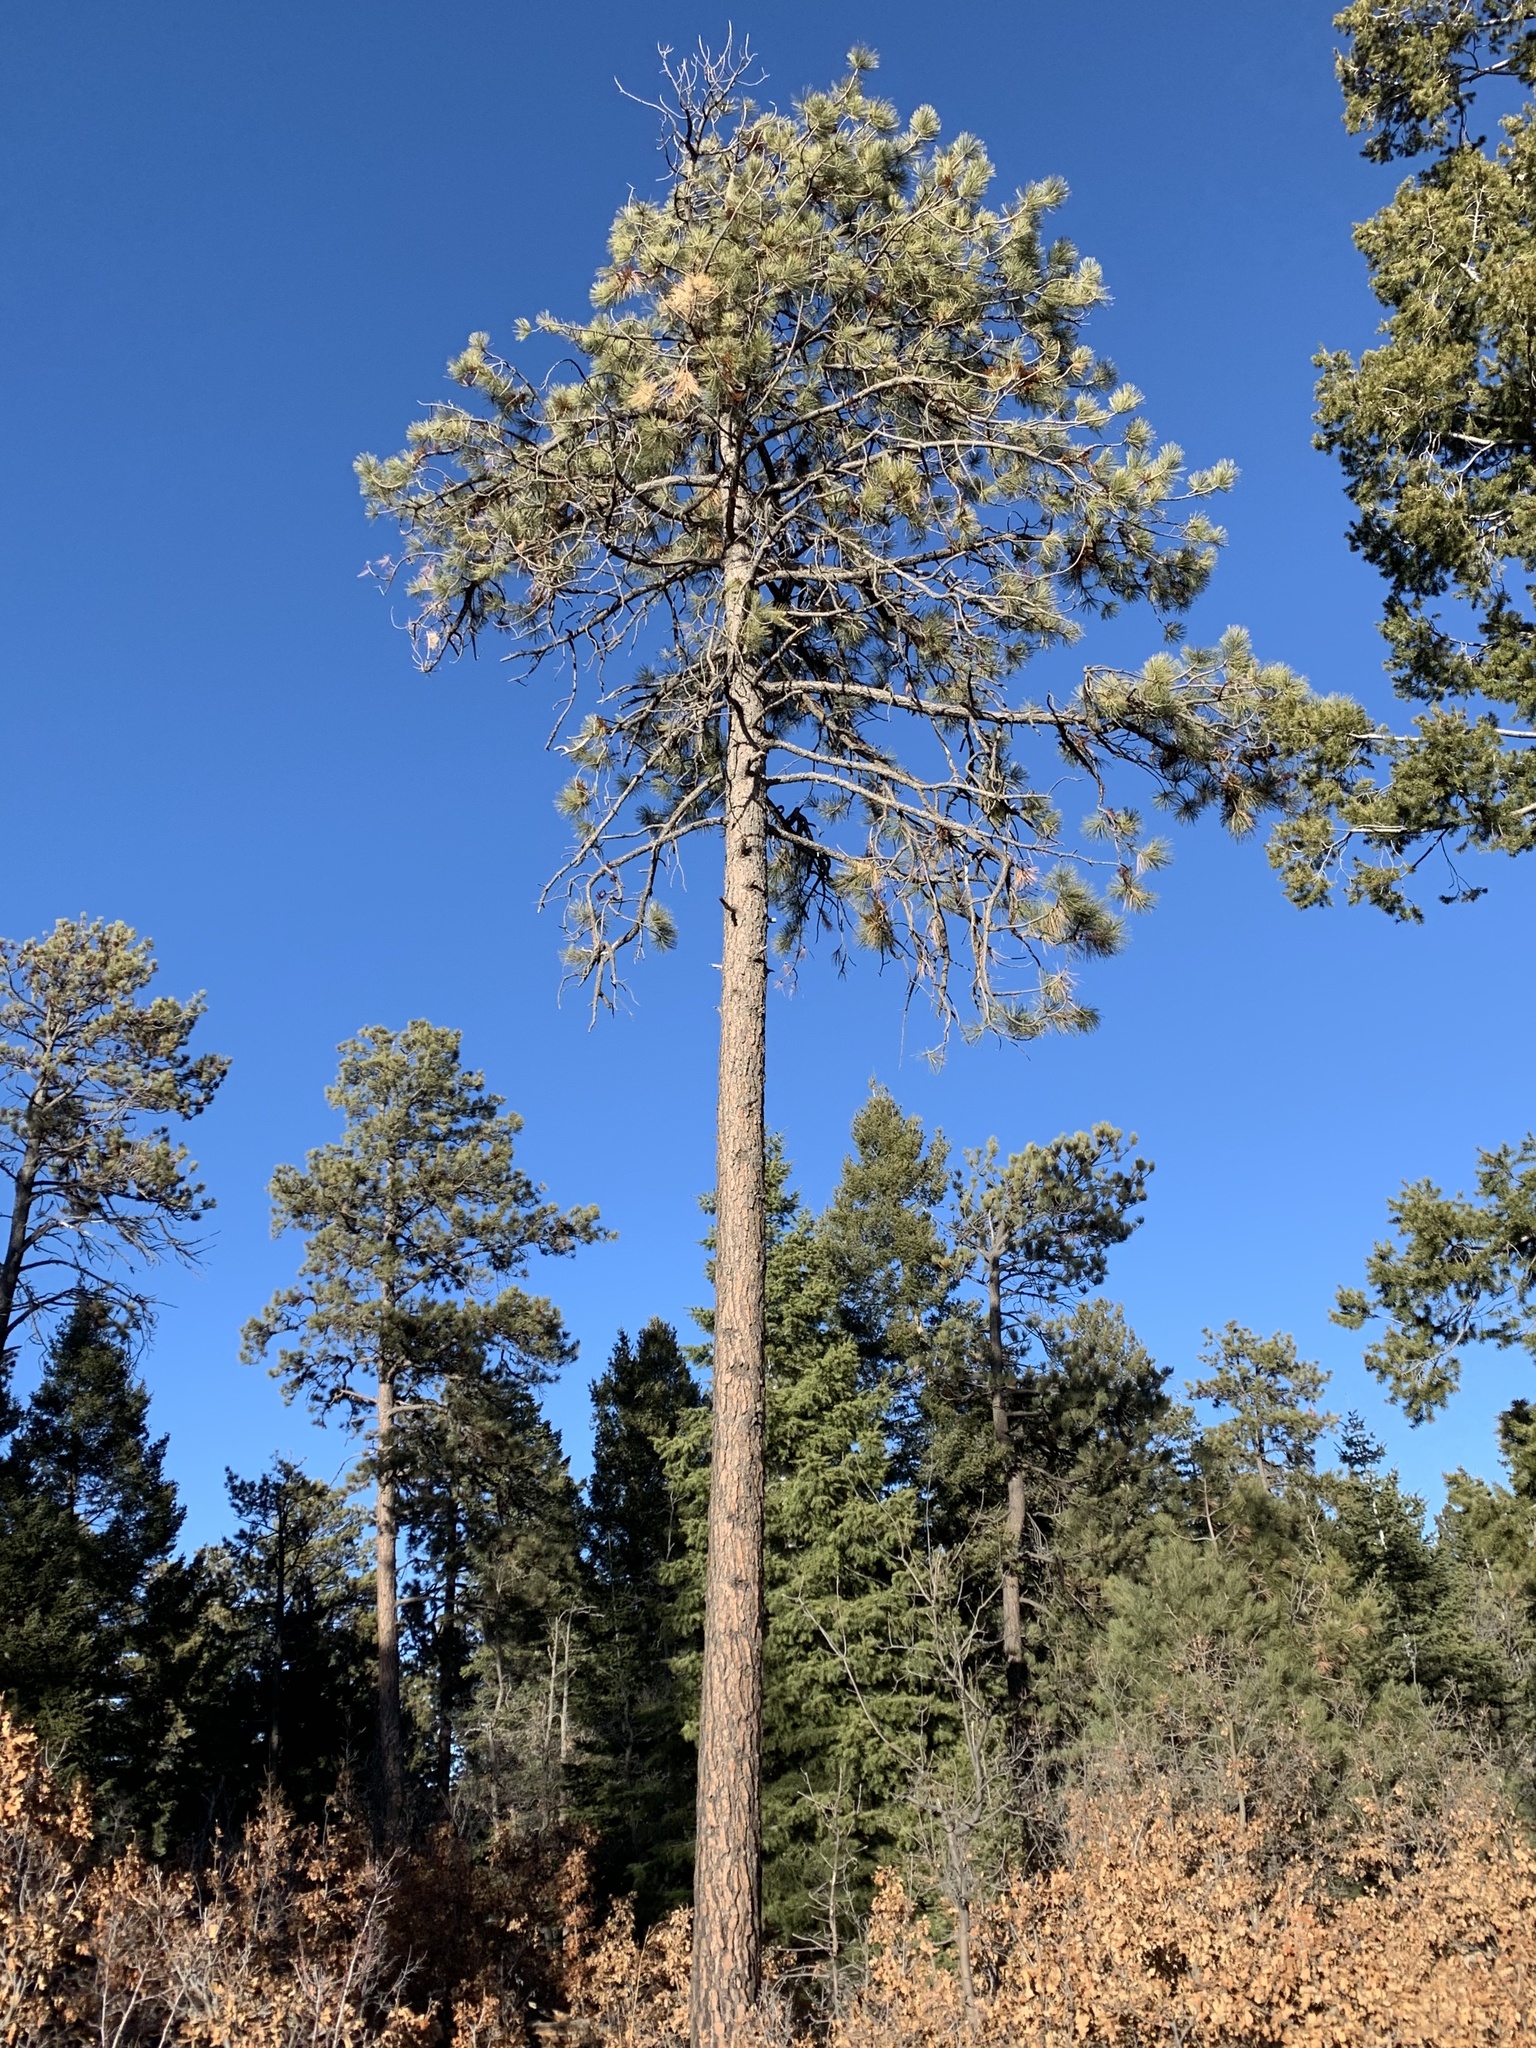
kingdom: Plantae
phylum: Tracheophyta
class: Pinopsida
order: Pinales
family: Pinaceae
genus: Pinus
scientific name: Pinus ponderosa
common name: Western yellow-pine
